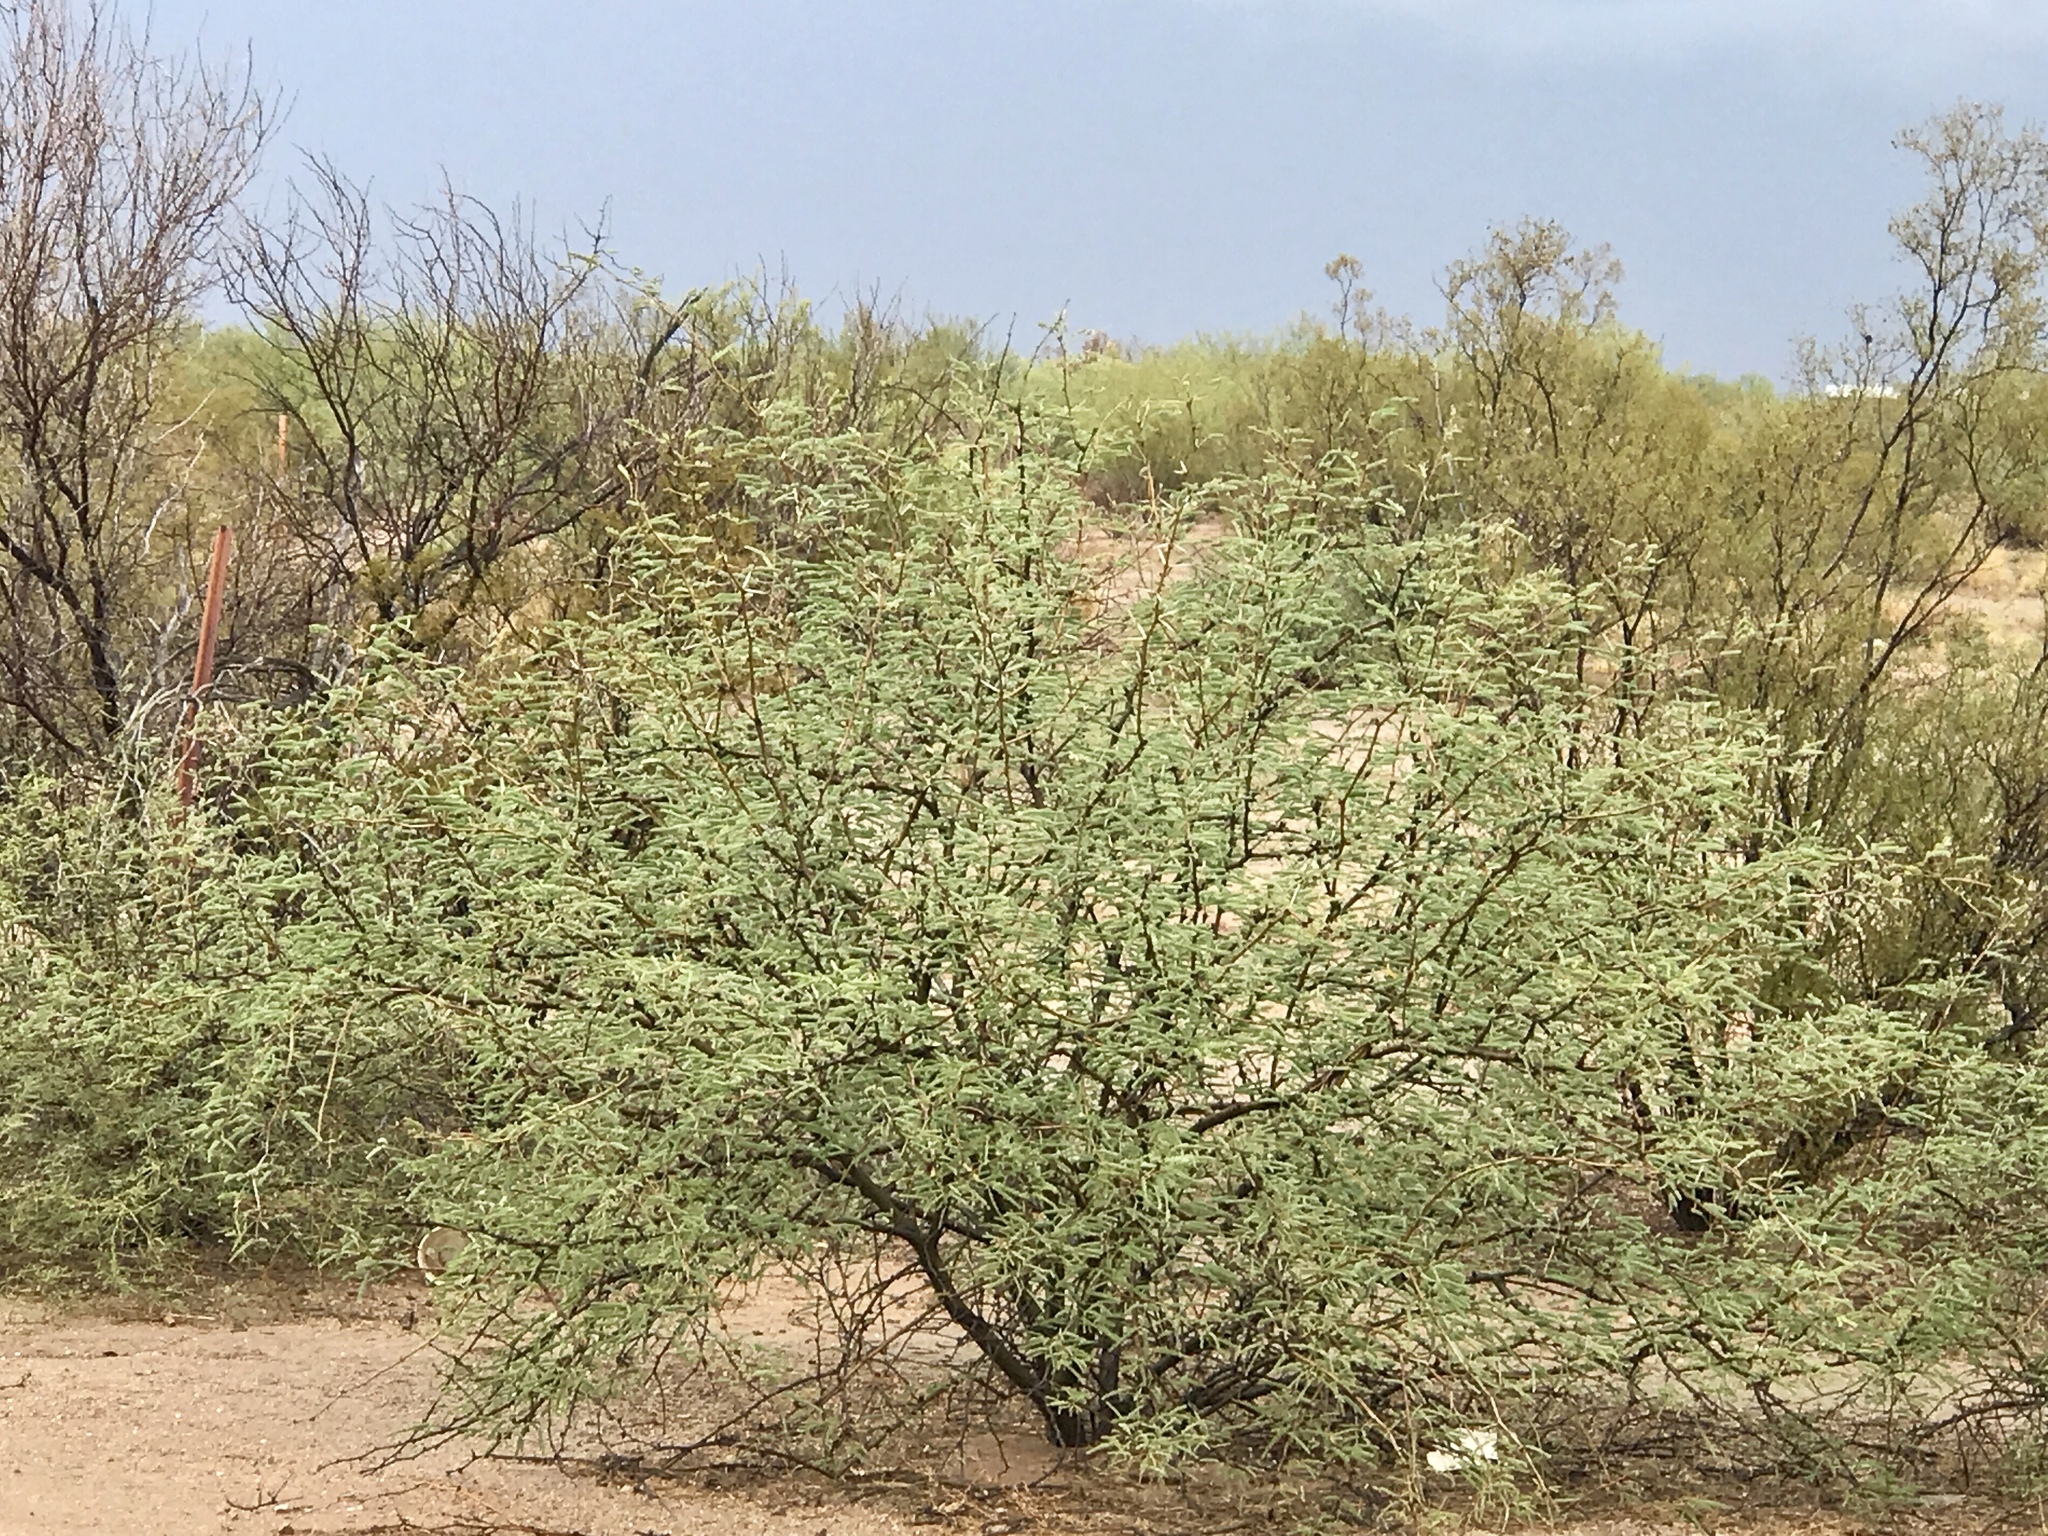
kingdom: Plantae
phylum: Tracheophyta
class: Magnoliopsida
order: Fabales
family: Fabaceae
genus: Vachellia
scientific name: Vachellia constricta
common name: Mescat acacia
